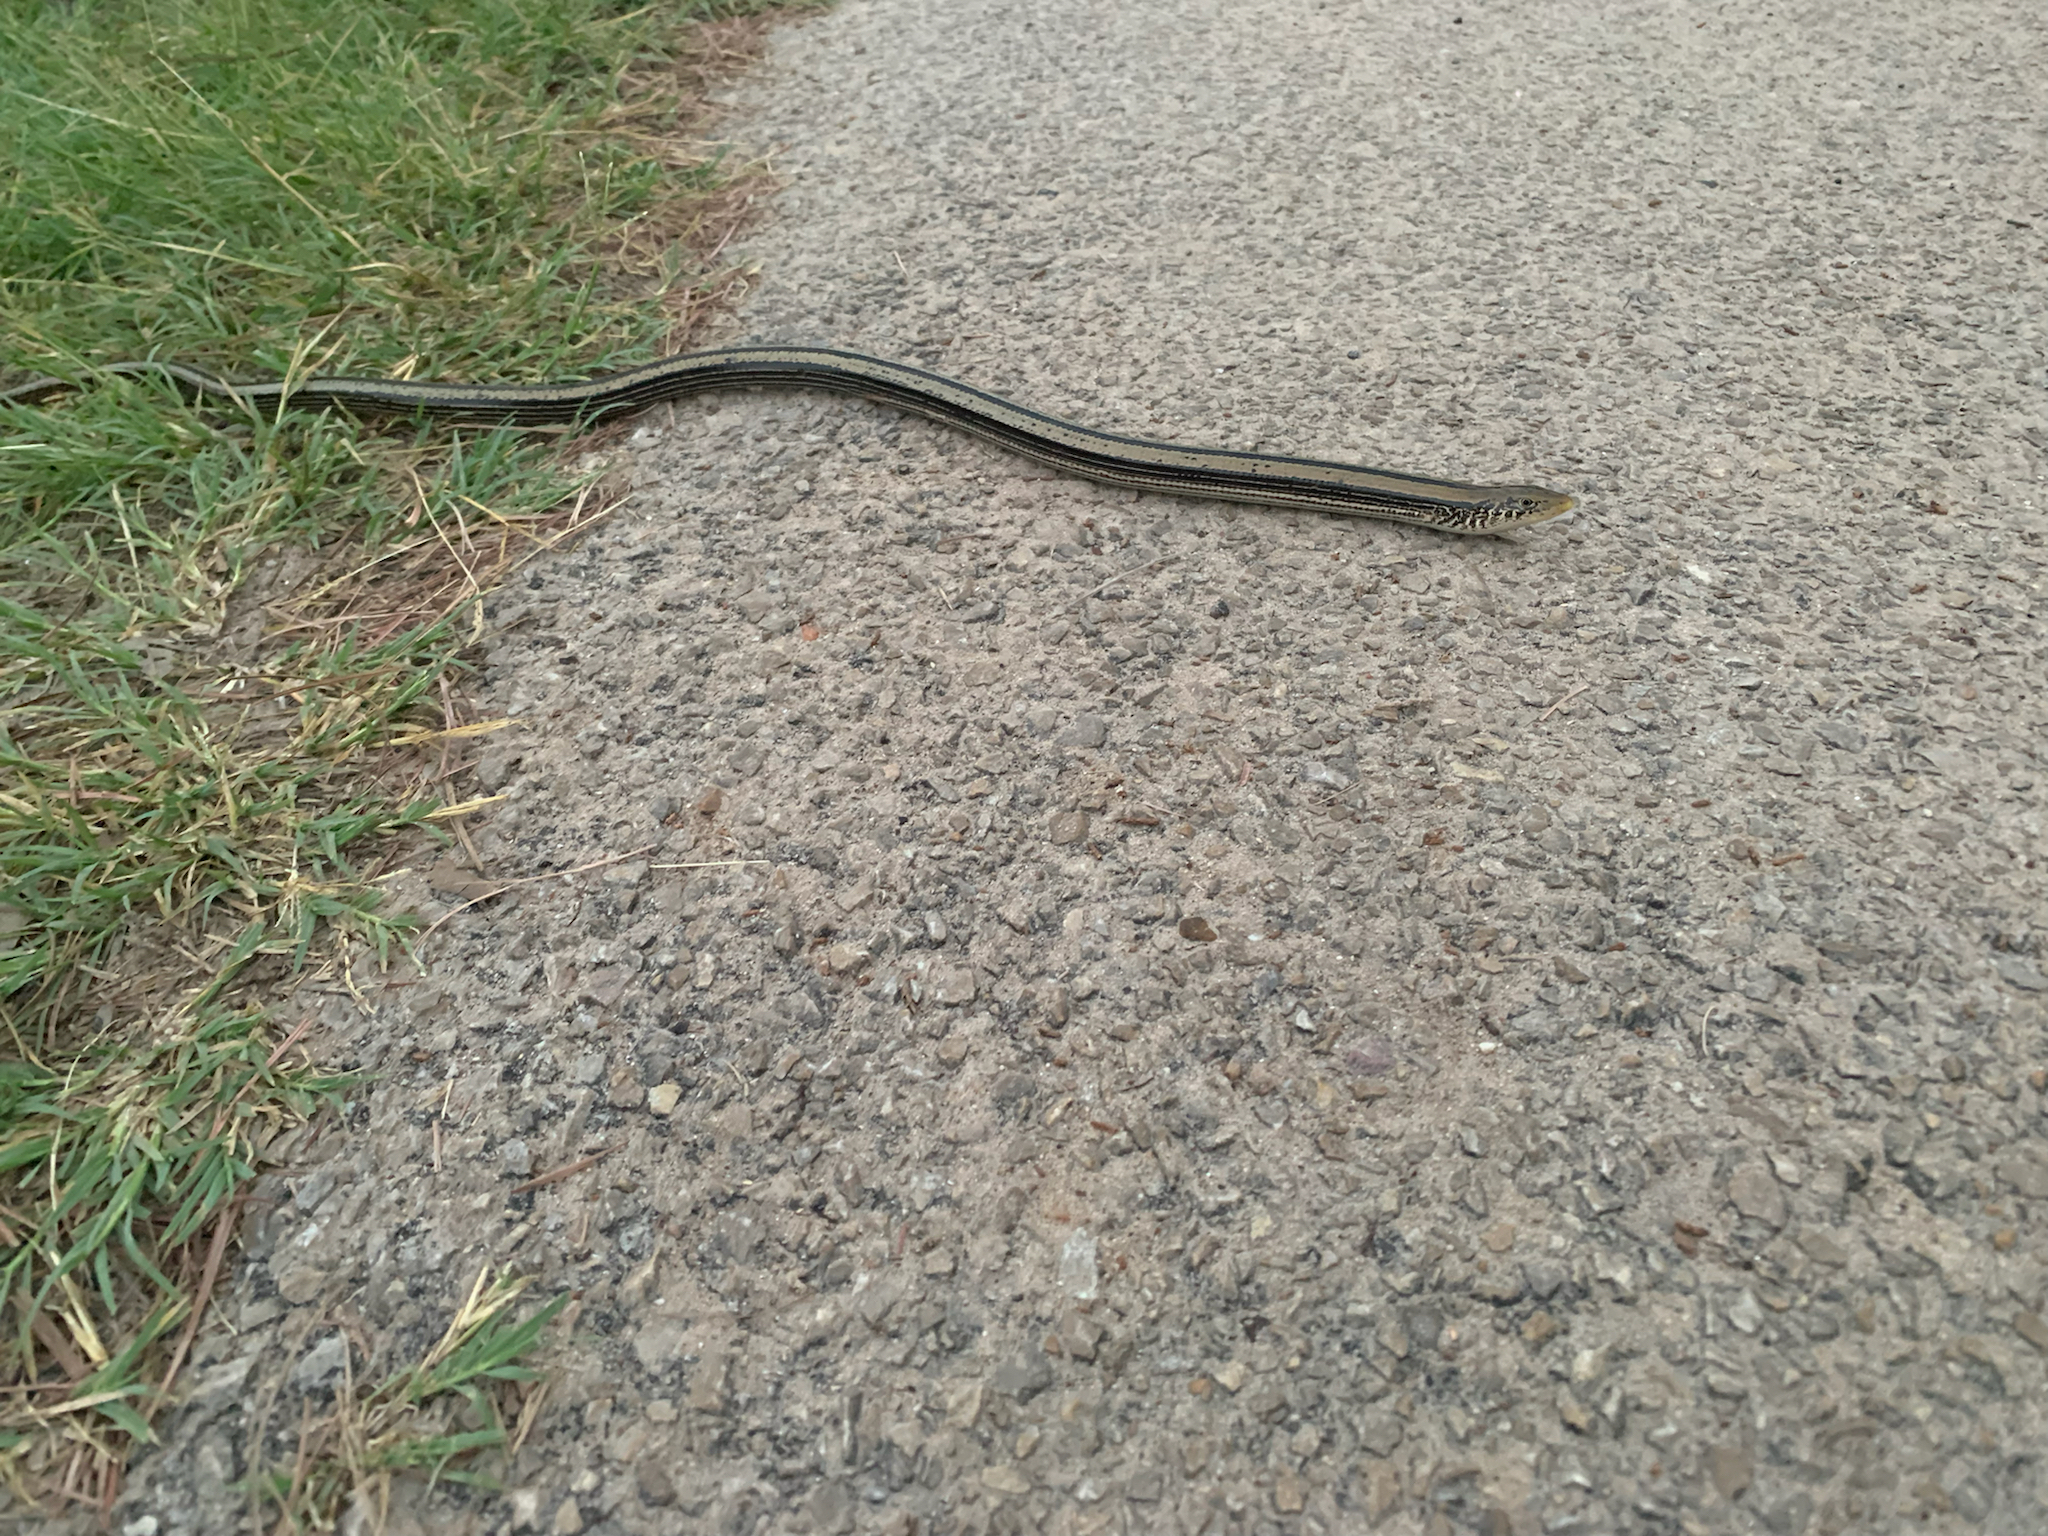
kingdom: Animalia
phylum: Chordata
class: Squamata
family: Anguidae
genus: Ophisaurus
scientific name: Ophisaurus attenuatus
